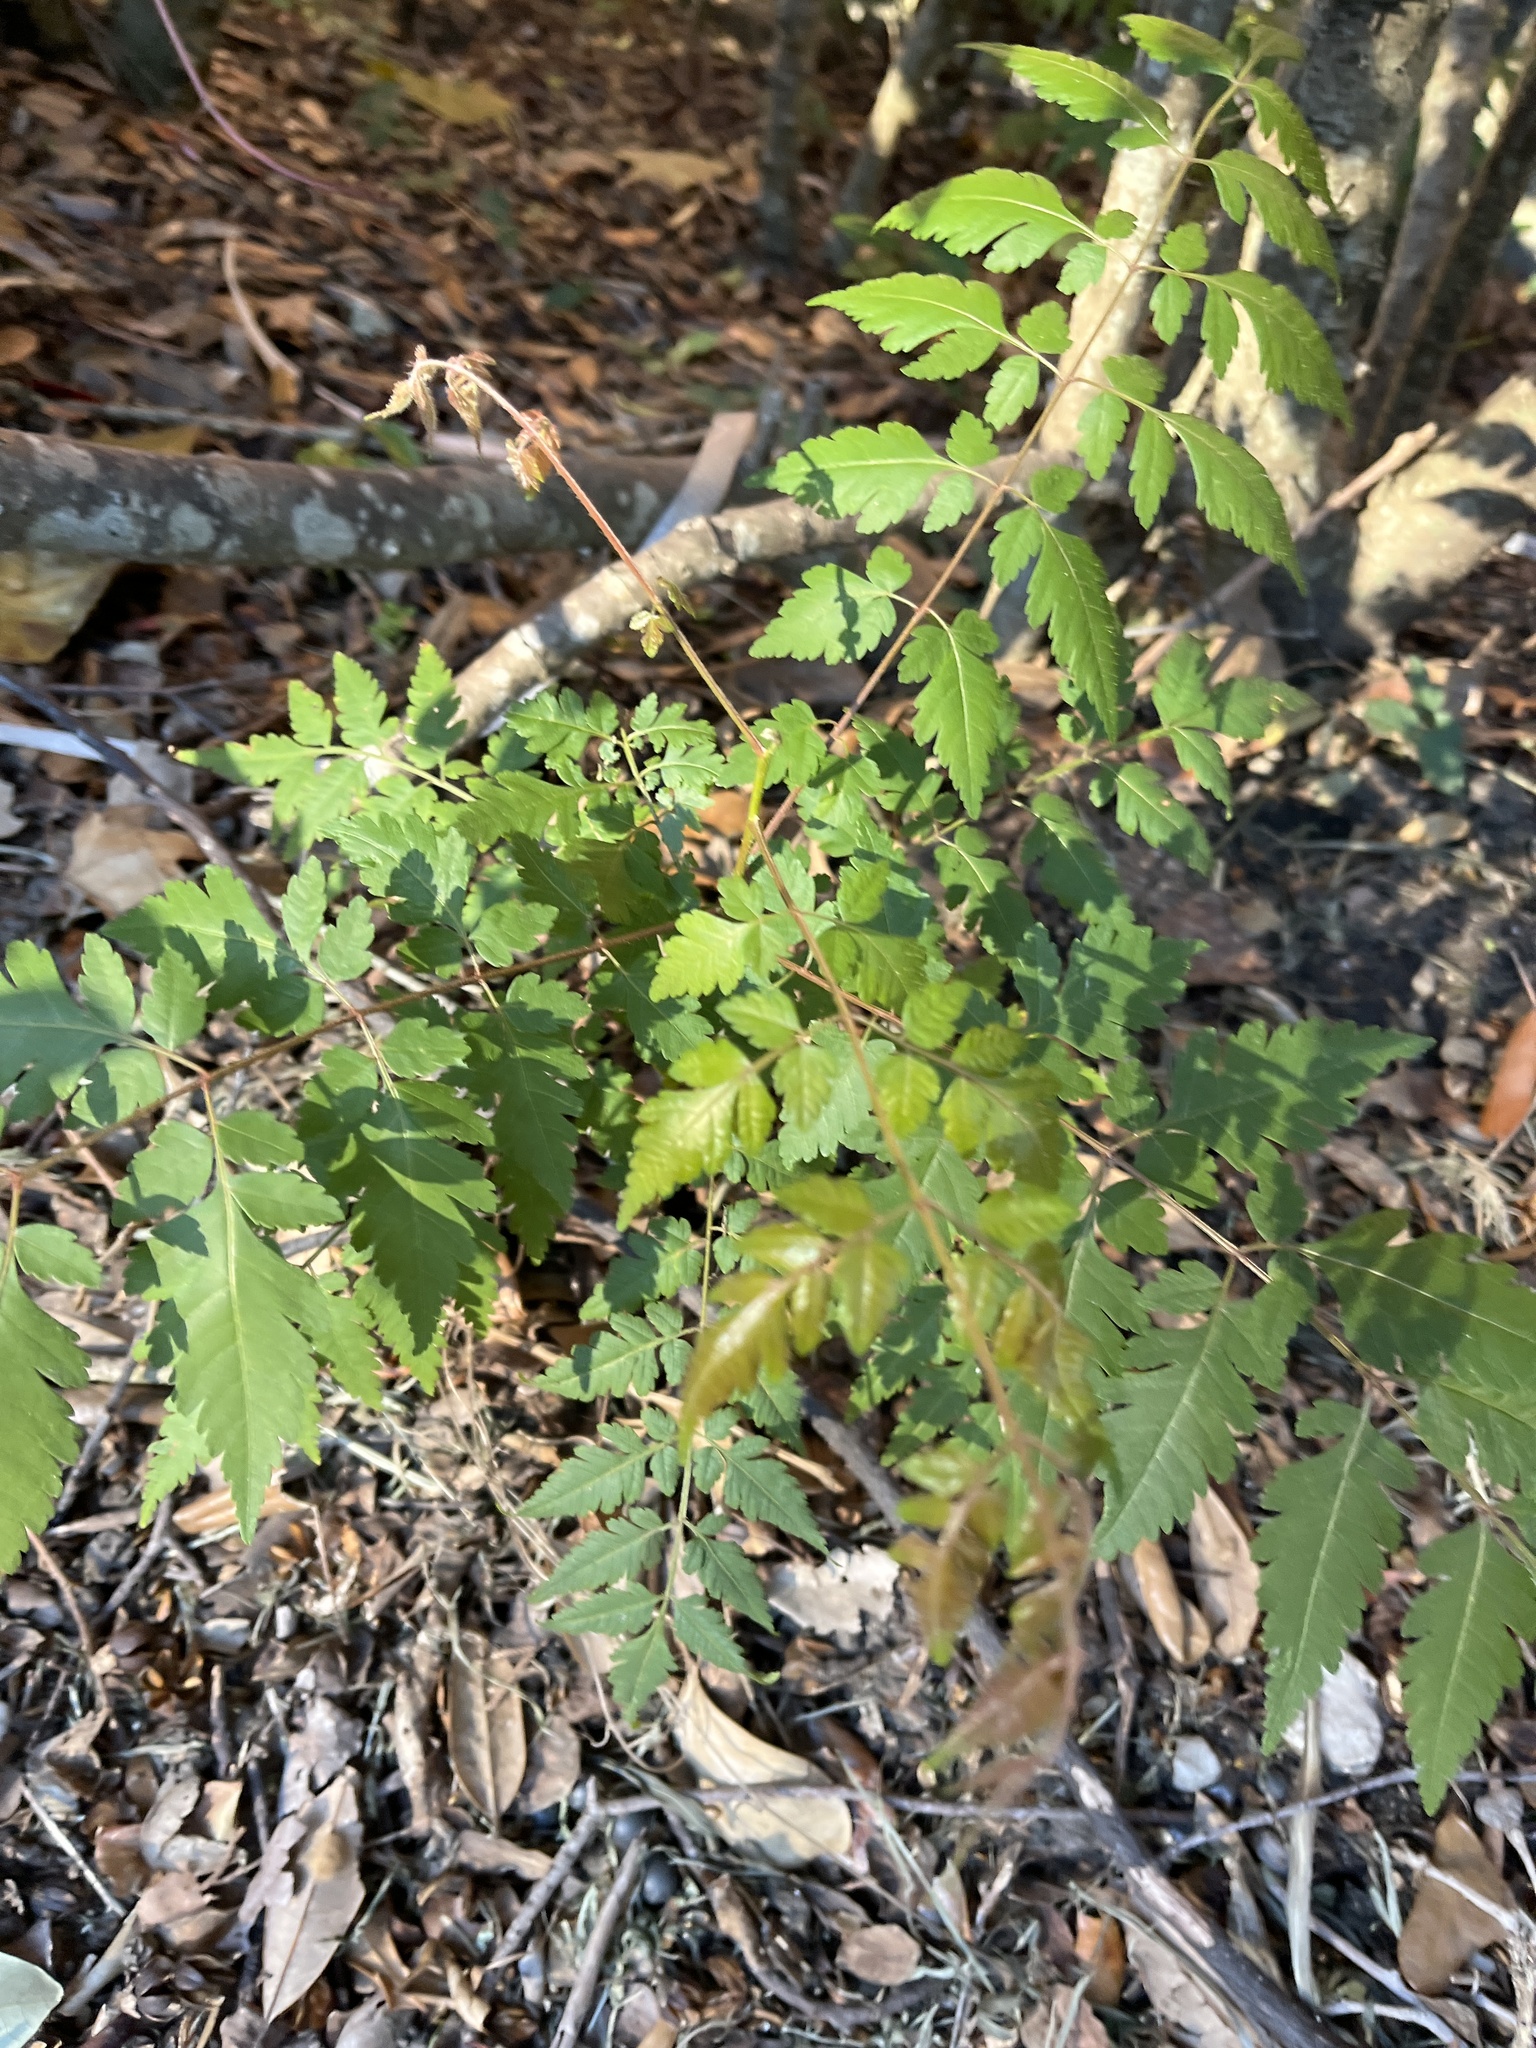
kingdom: Plantae
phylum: Tracheophyta
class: Magnoliopsida
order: Vitales
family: Vitaceae
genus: Nekemias
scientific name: Nekemias arborea
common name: Peppervine
